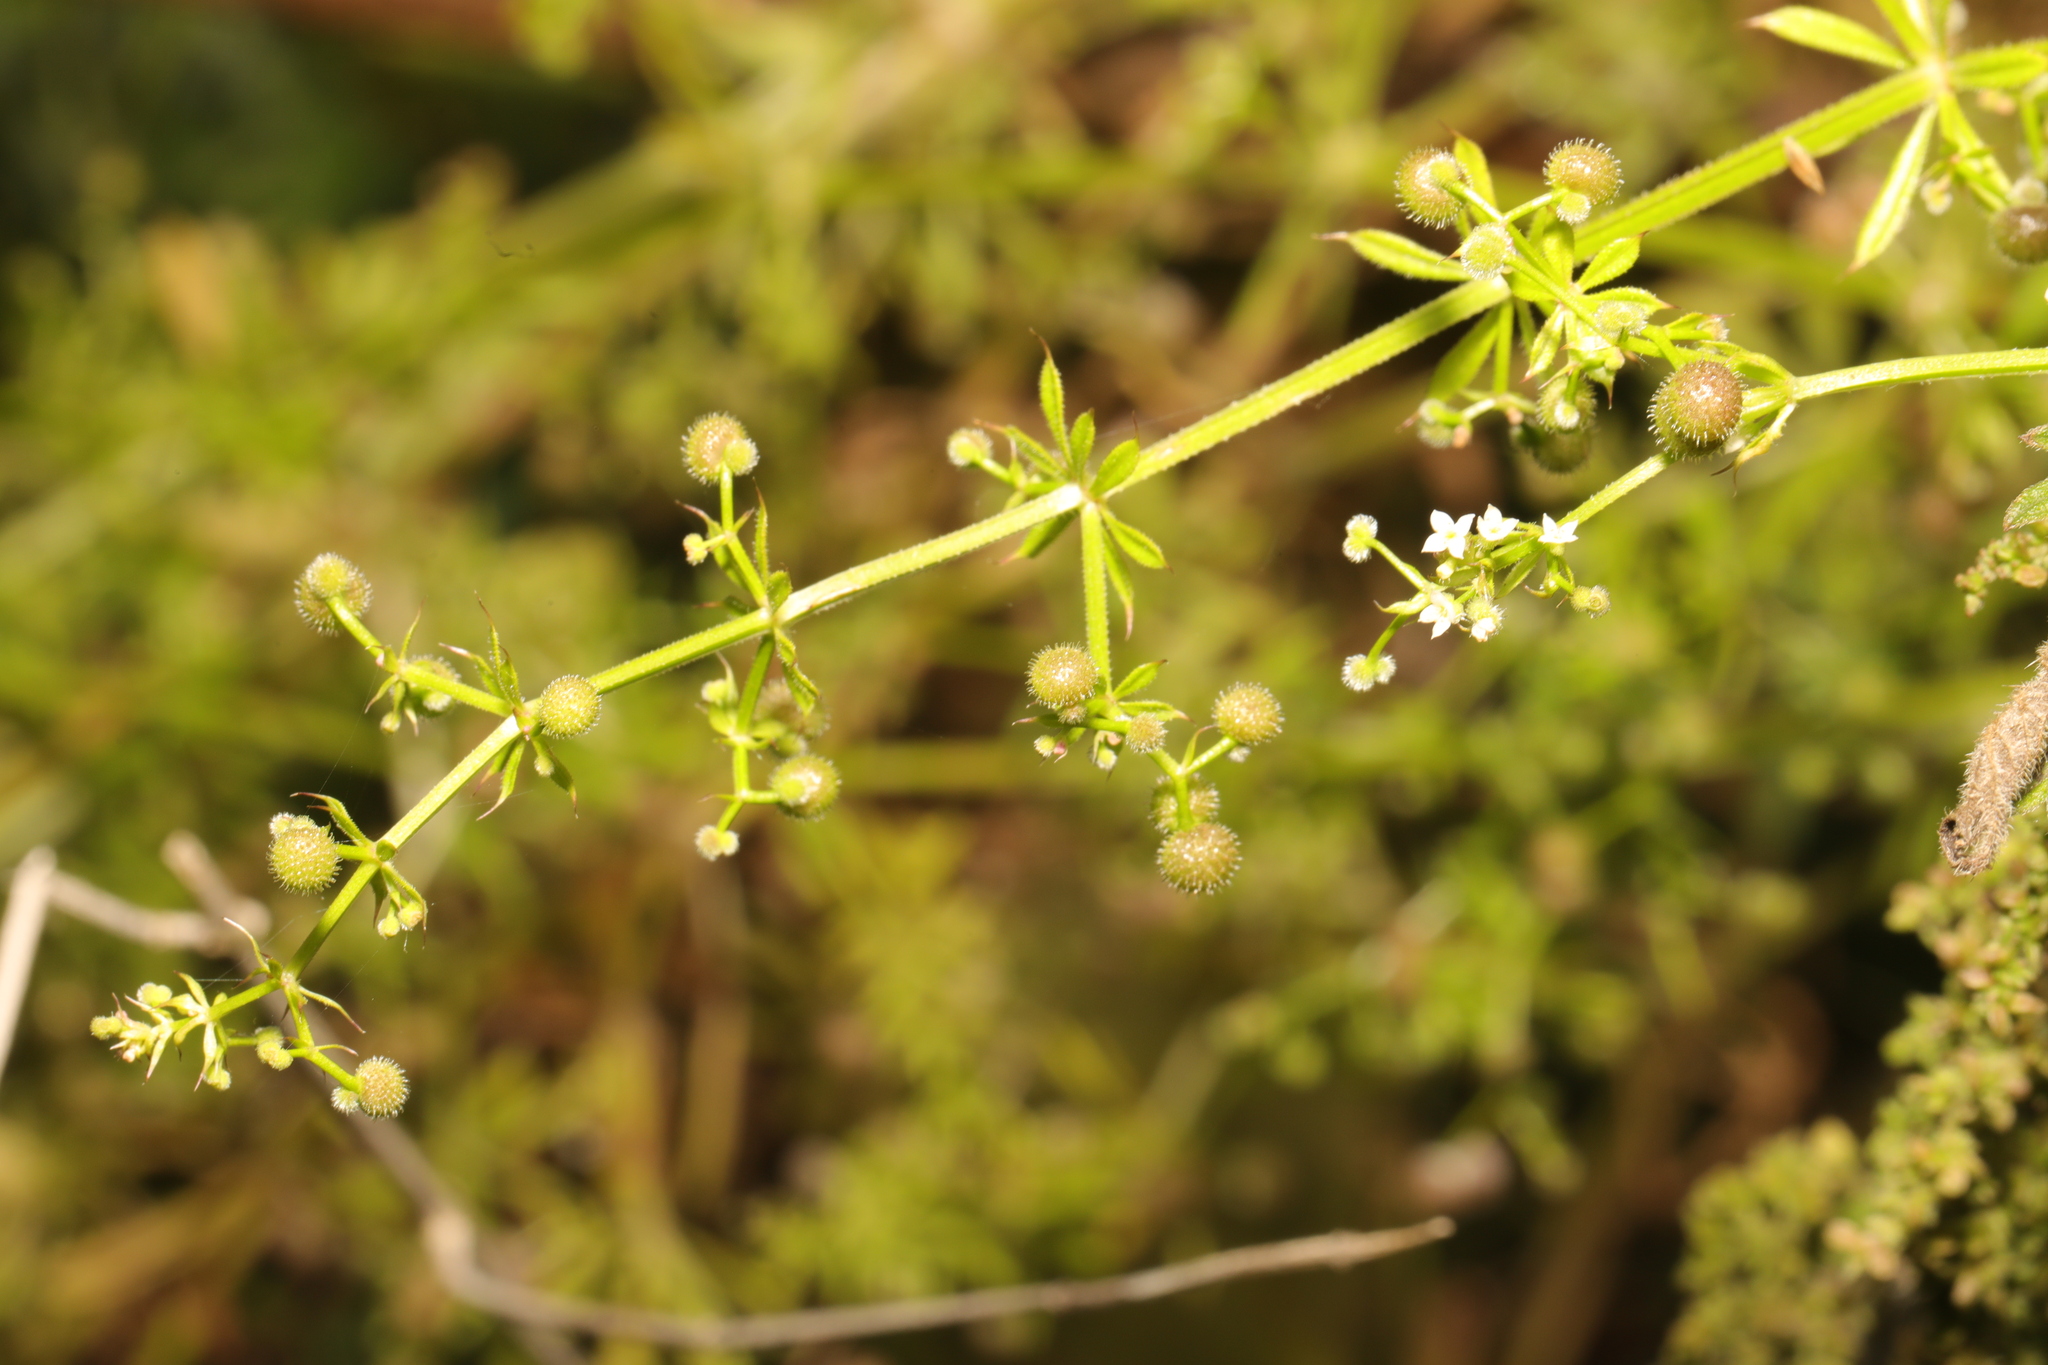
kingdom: Plantae
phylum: Tracheophyta
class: Magnoliopsida
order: Gentianales
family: Rubiaceae
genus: Galium
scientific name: Galium aparine
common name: Cleavers
